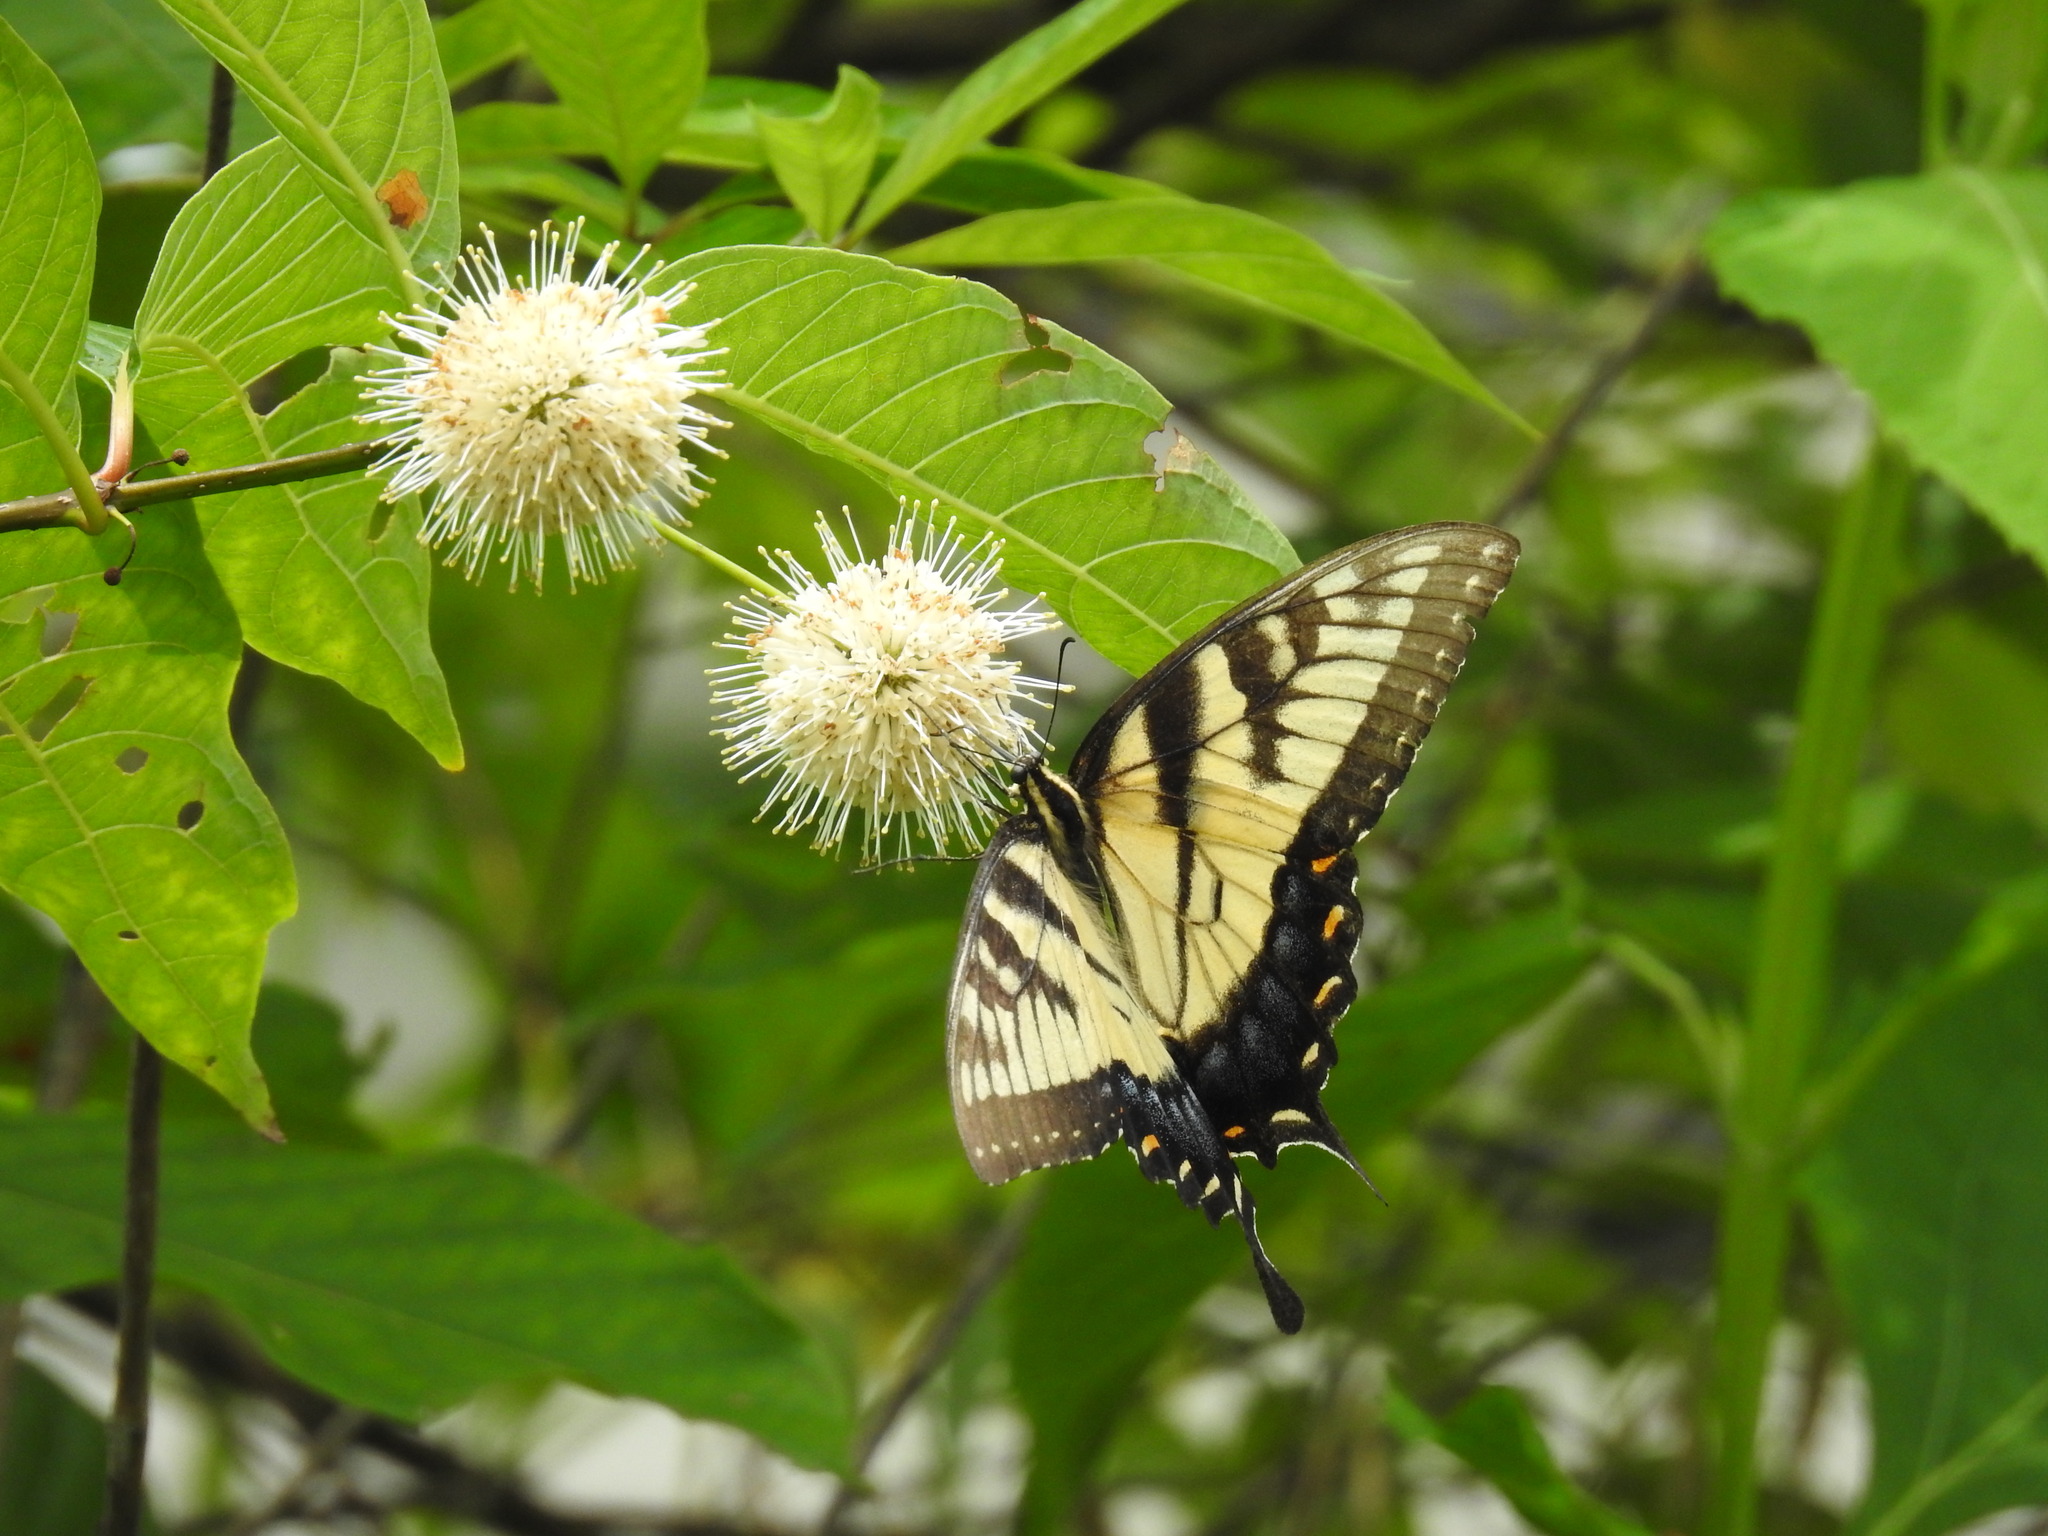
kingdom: Animalia
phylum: Arthropoda
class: Insecta
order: Lepidoptera
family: Papilionidae
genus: Papilio
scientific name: Papilio glaucus
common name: Tiger swallowtail
